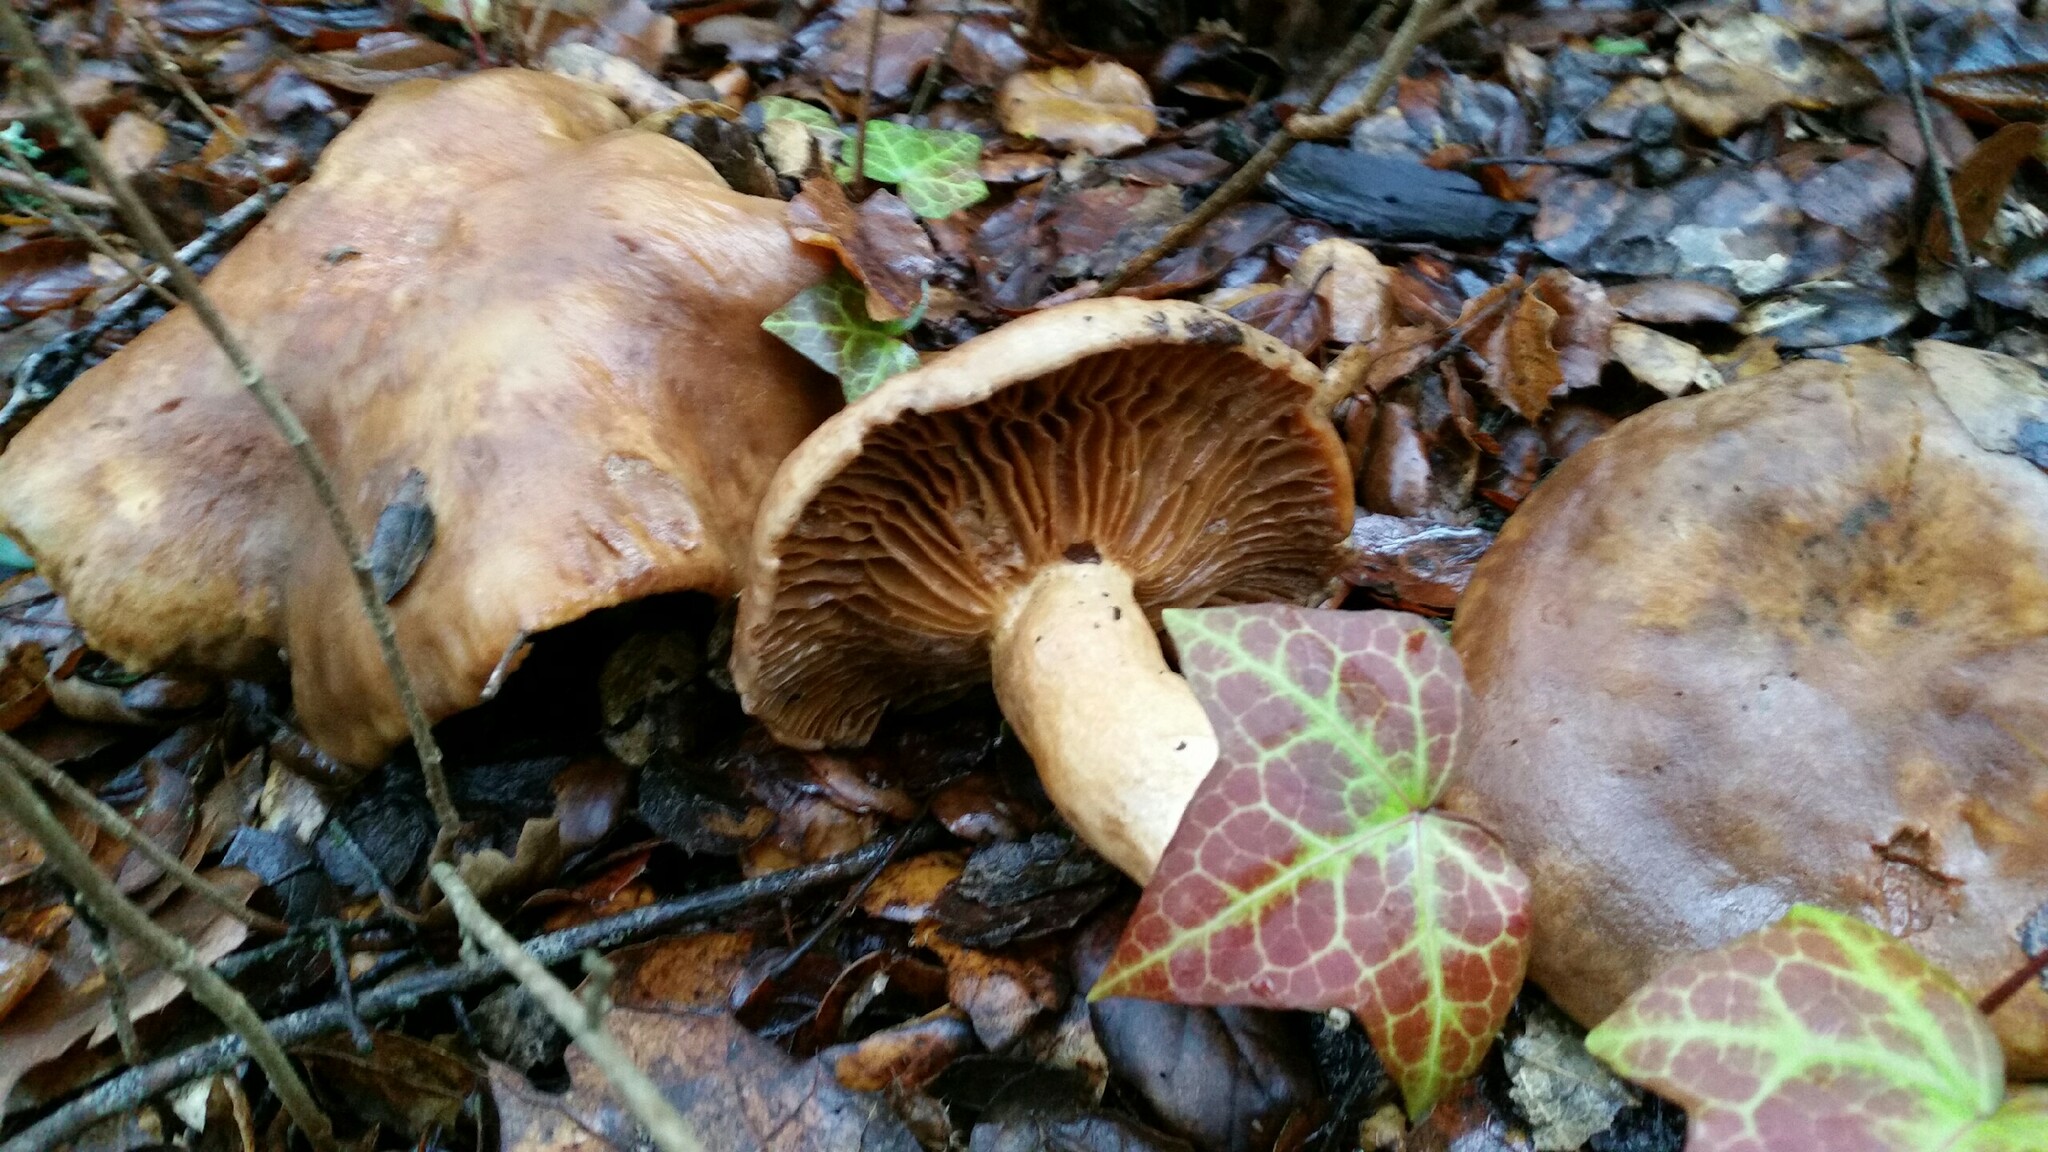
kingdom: Fungi
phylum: Basidiomycota
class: Agaricomycetes
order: Agaricales
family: Cortinariaceae
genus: Cortinarius
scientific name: Cortinarius infractus
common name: Bitter webcap
